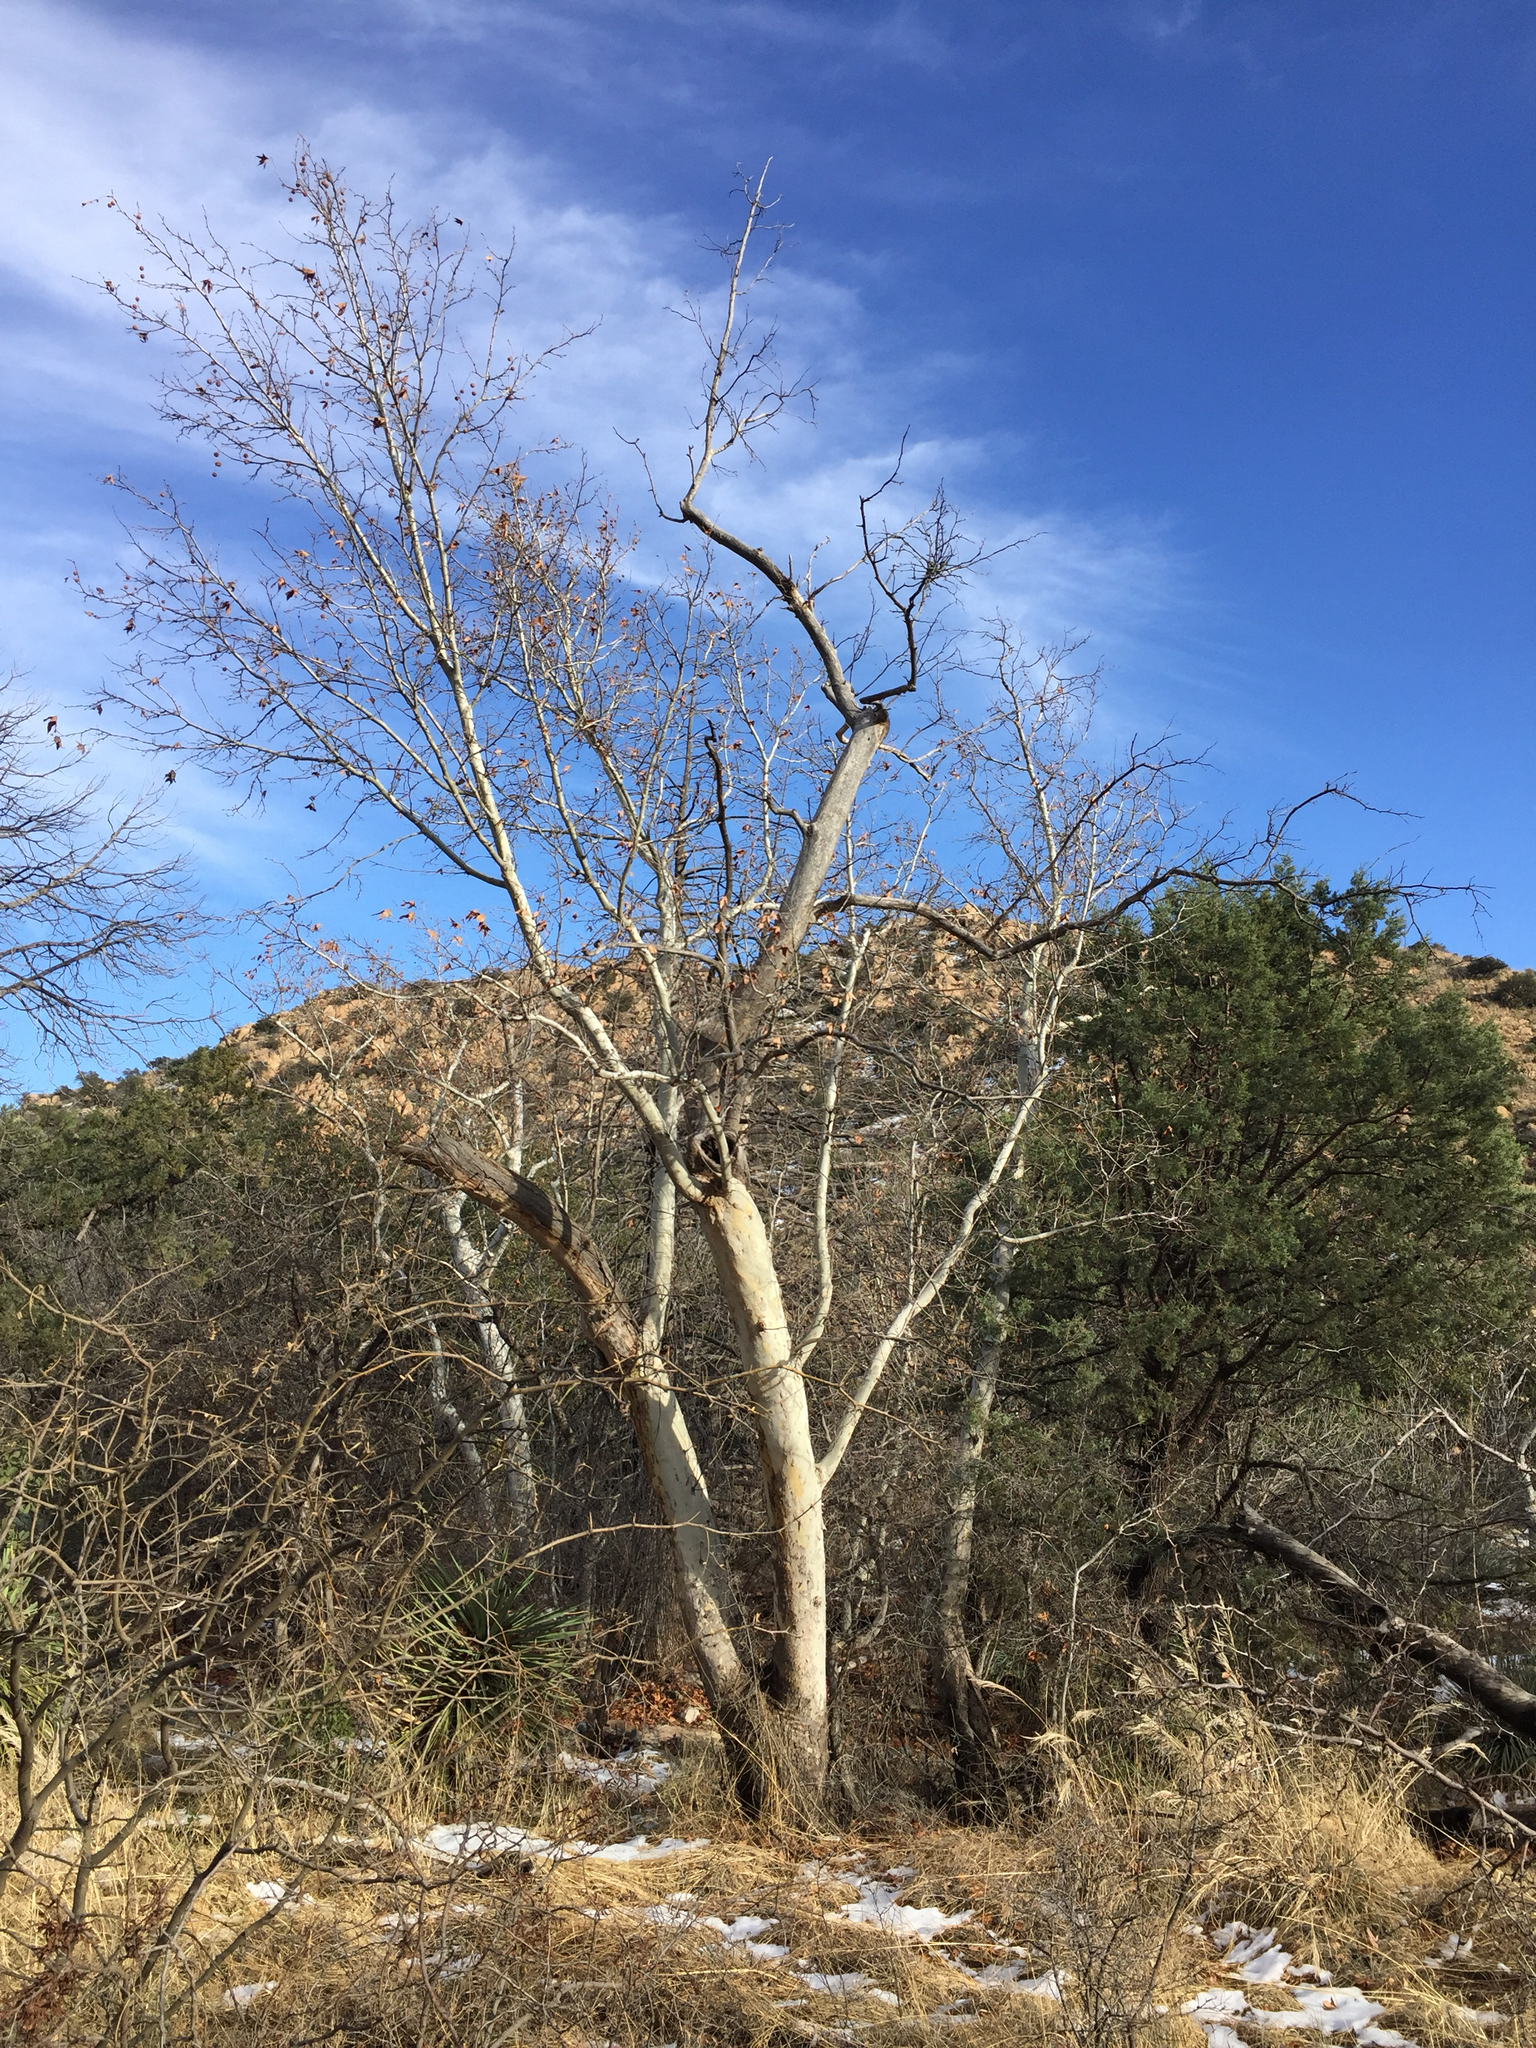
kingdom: Plantae
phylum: Tracheophyta
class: Magnoliopsida
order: Proteales
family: Platanaceae
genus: Platanus
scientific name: Platanus wrightii
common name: Arizona sycamore
